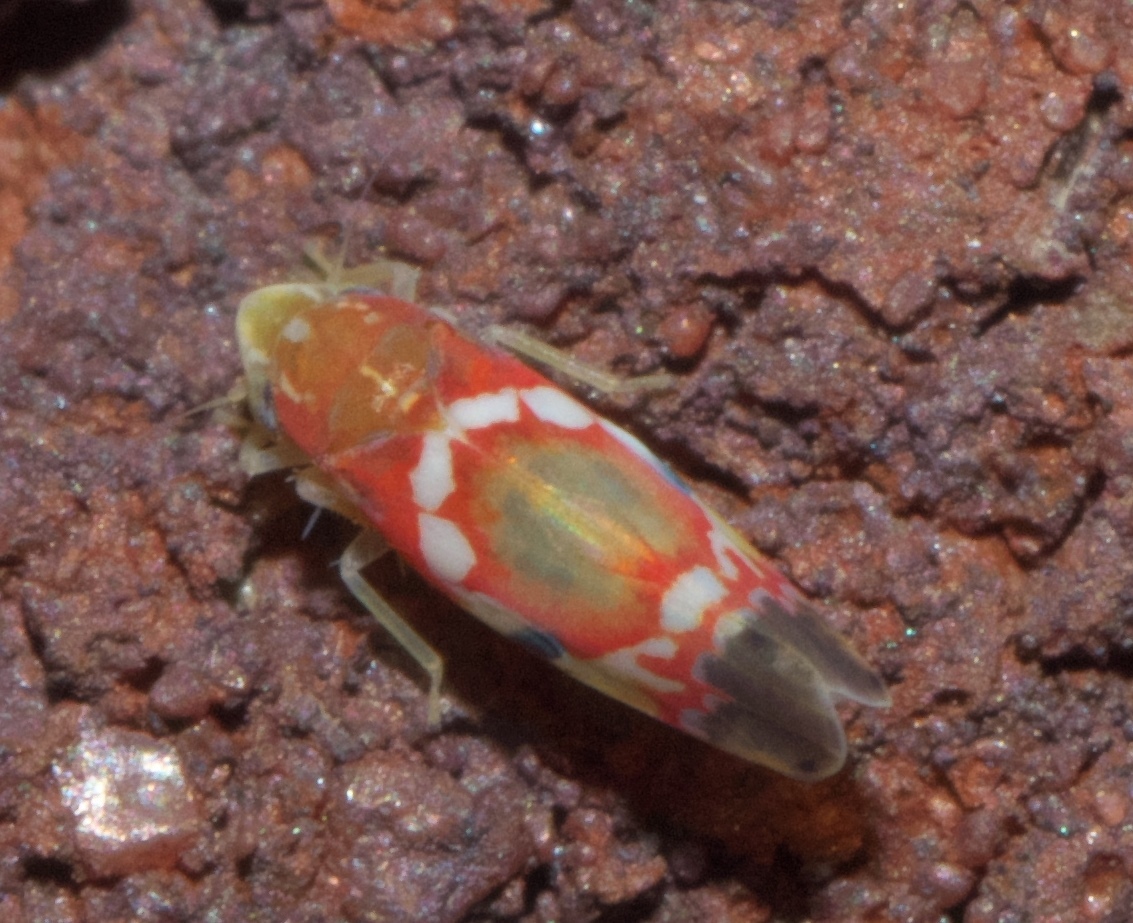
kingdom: Animalia
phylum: Arthropoda
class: Insecta
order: Hemiptera
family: Cicadellidae
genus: Erythroneura
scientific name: Erythroneura vitis
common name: Grapevine leafhopper
